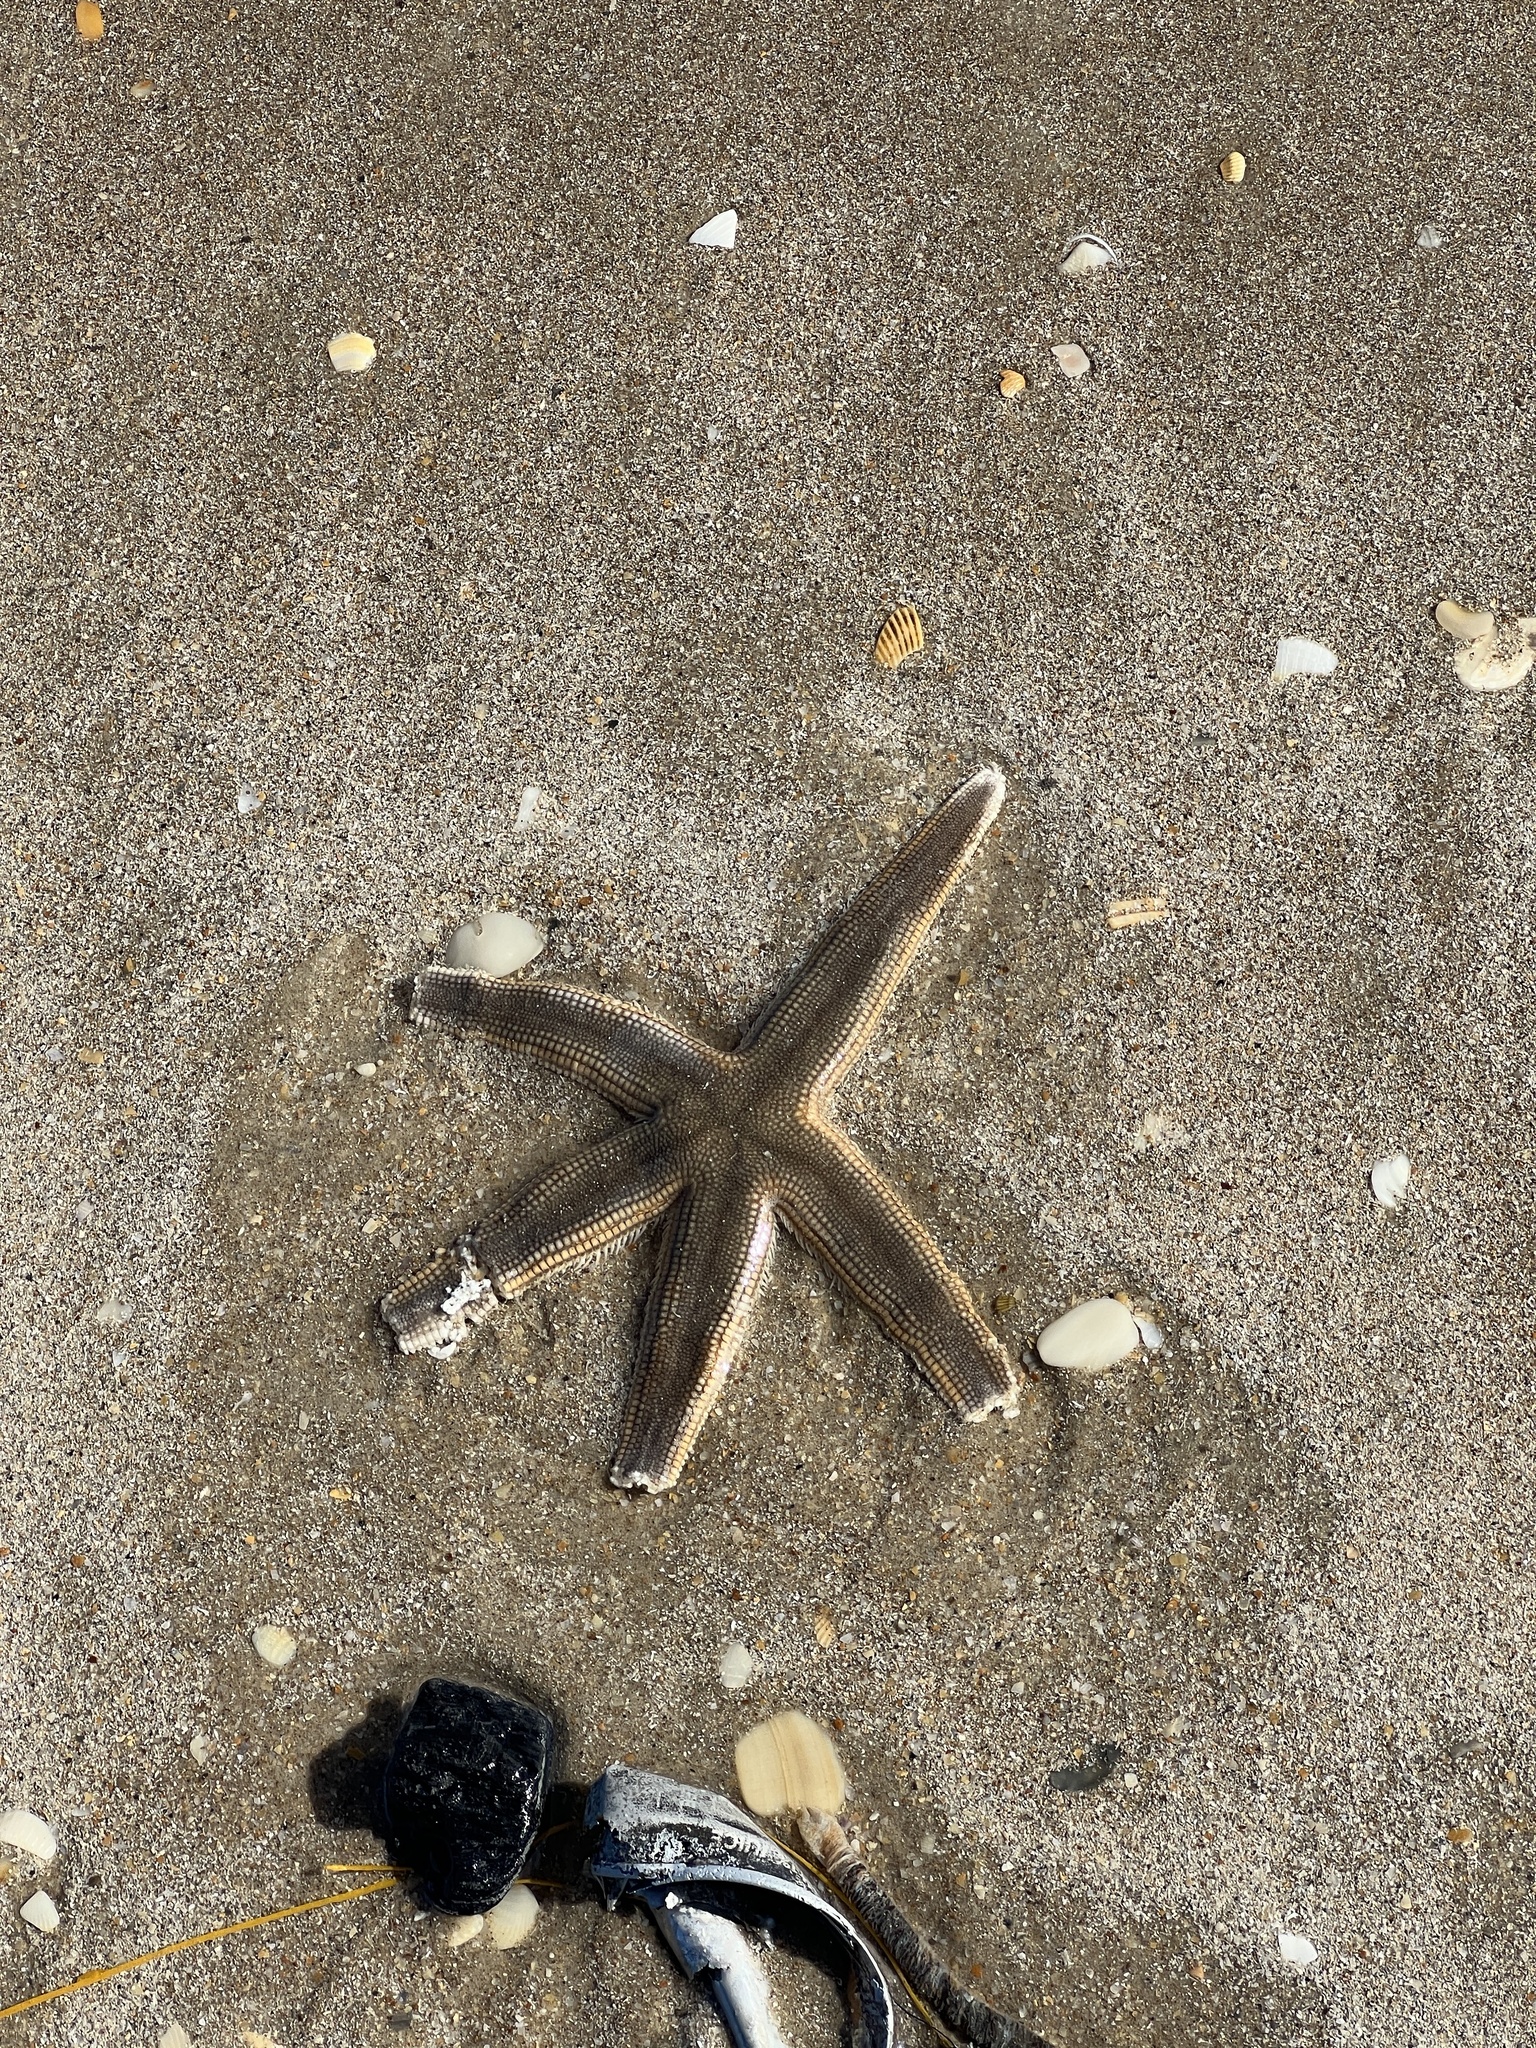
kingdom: Animalia
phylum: Echinodermata
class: Asteroidea
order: Paxillosida
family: Luidiidae
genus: Luidia
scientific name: Luidia clathrata
